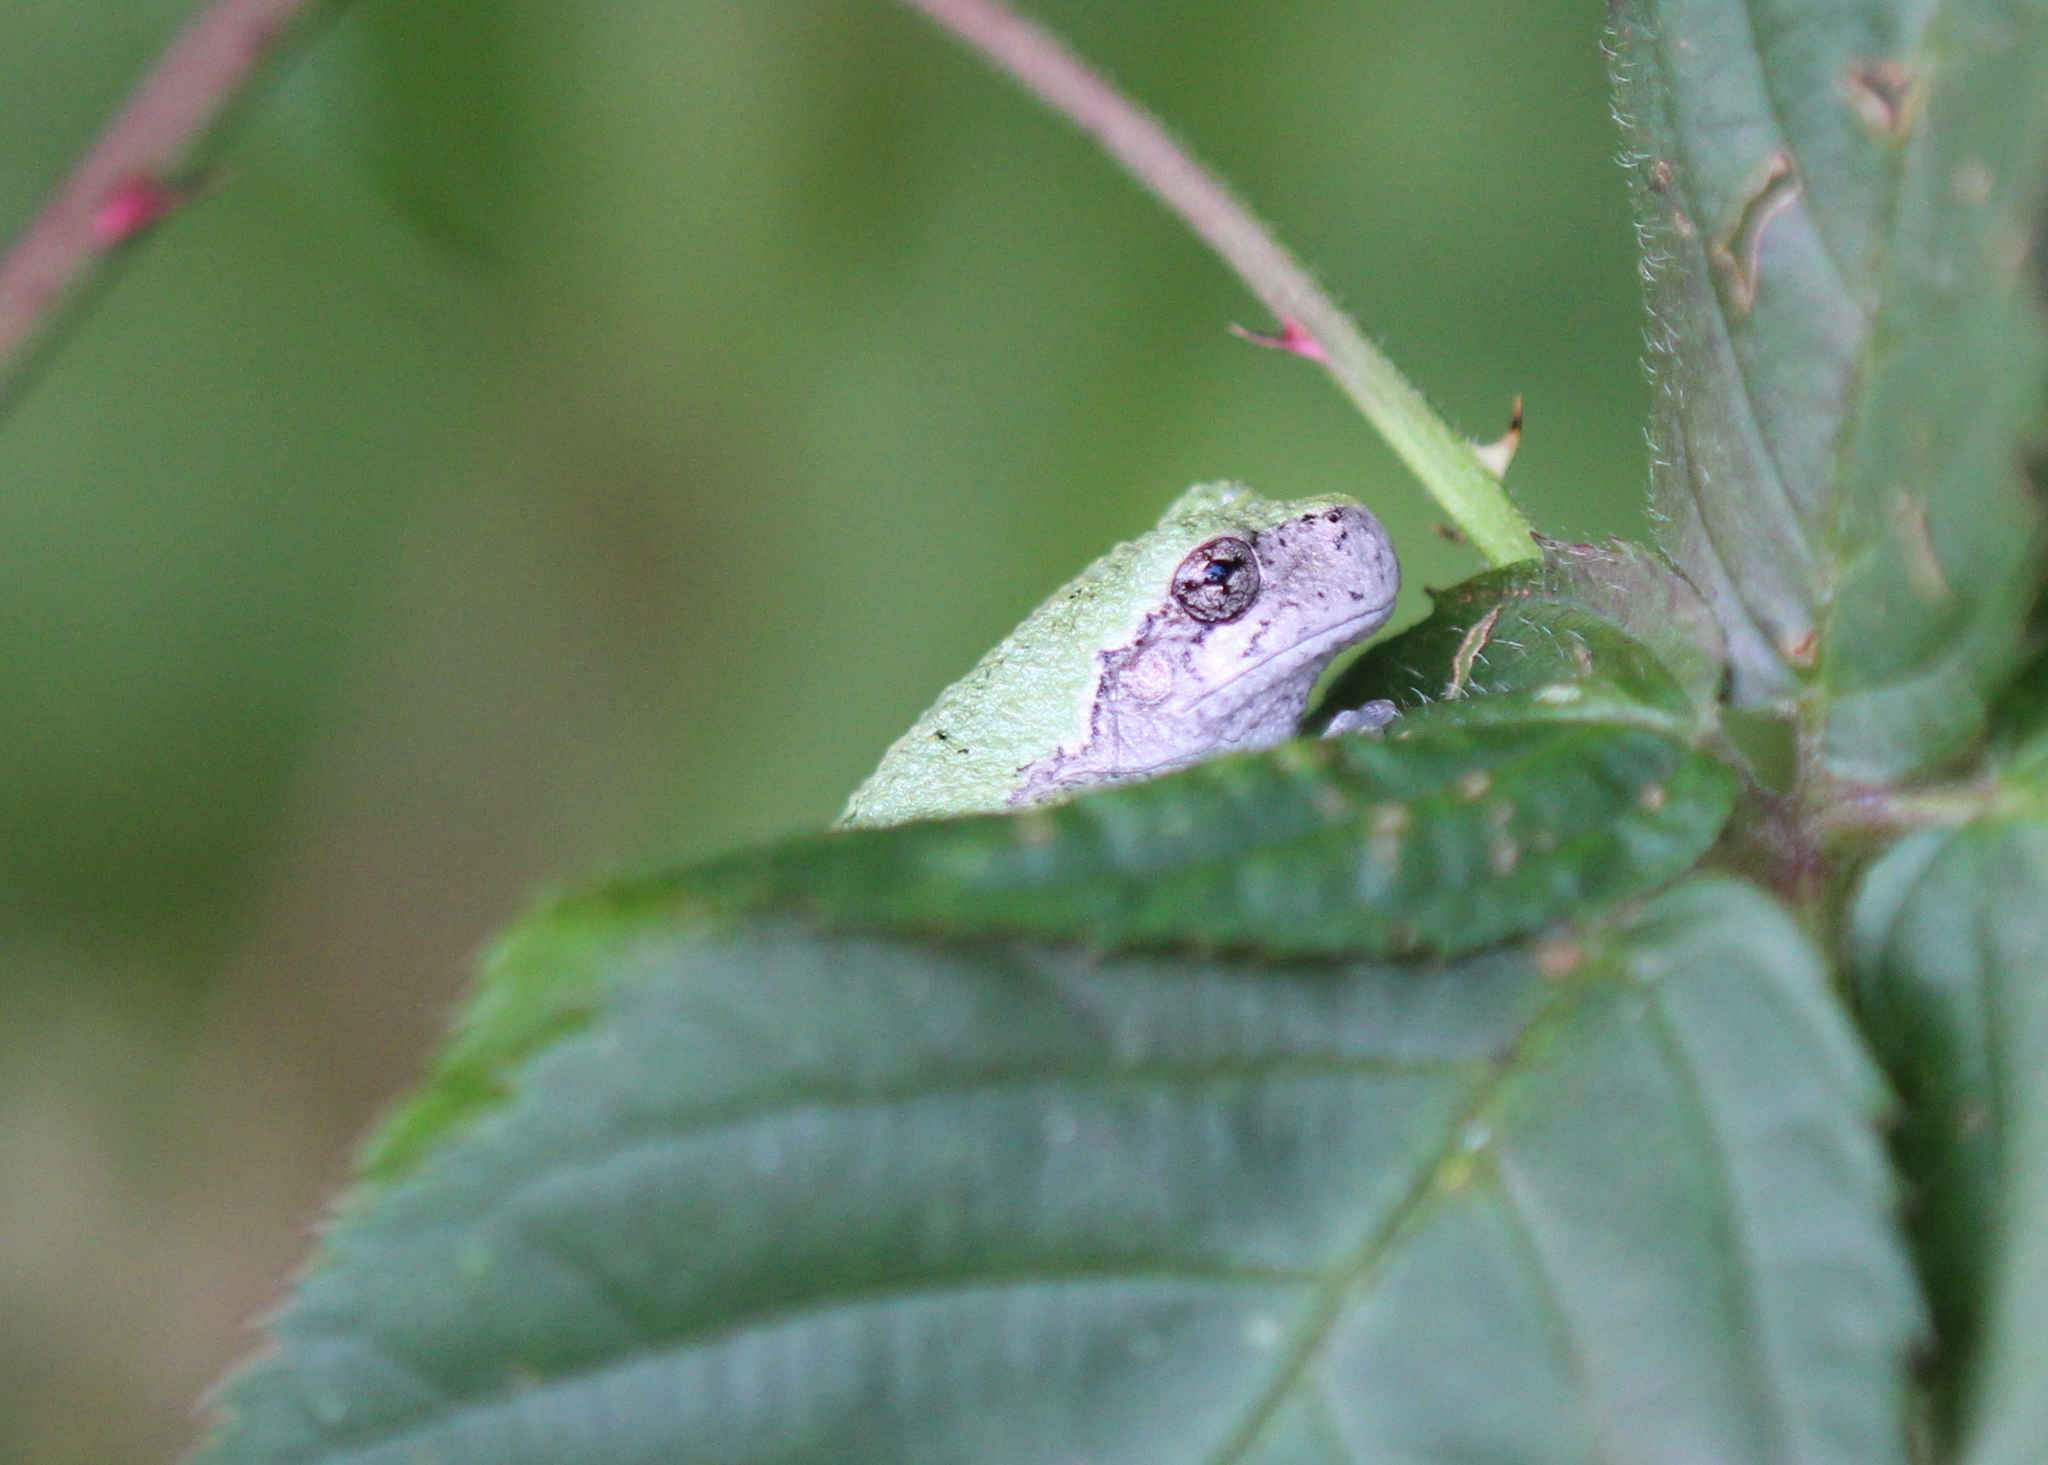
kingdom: Animalia
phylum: Chordata
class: Amphibia
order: Anura
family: Hylidae
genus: Dryophytes
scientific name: Dryophytes versicolor
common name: Gray treefrog
